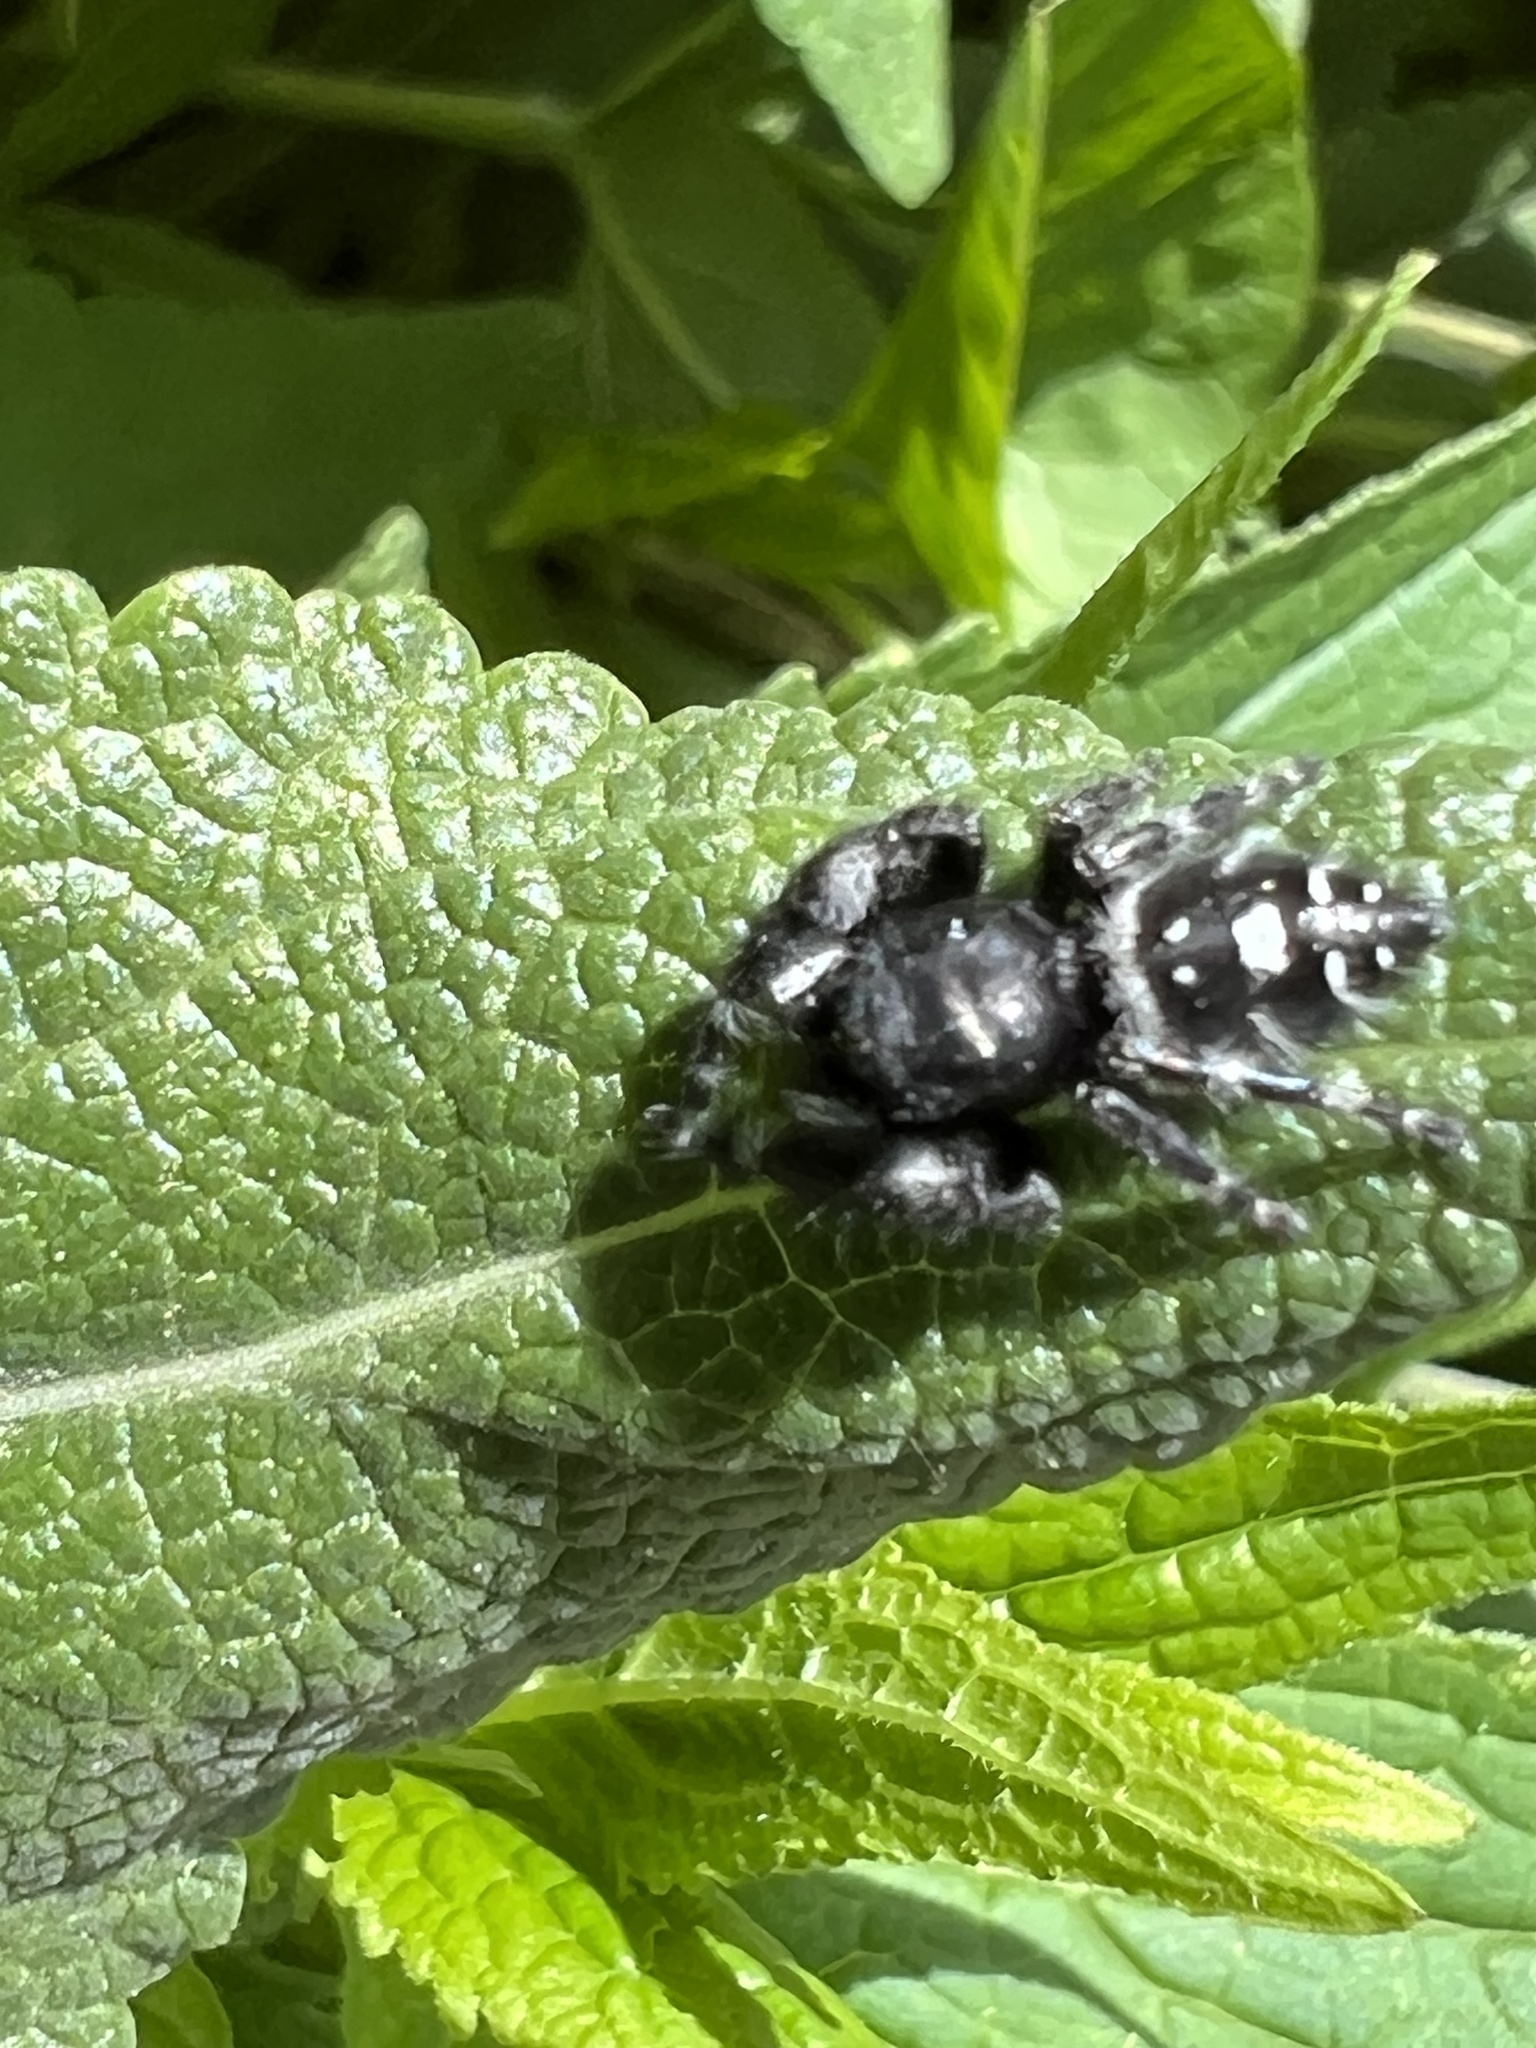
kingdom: Animalia
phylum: Arthropoda
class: Arachnida
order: Araneae
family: Salticidae
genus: Phidippus
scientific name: Phidippus audax
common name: Bold jumper
